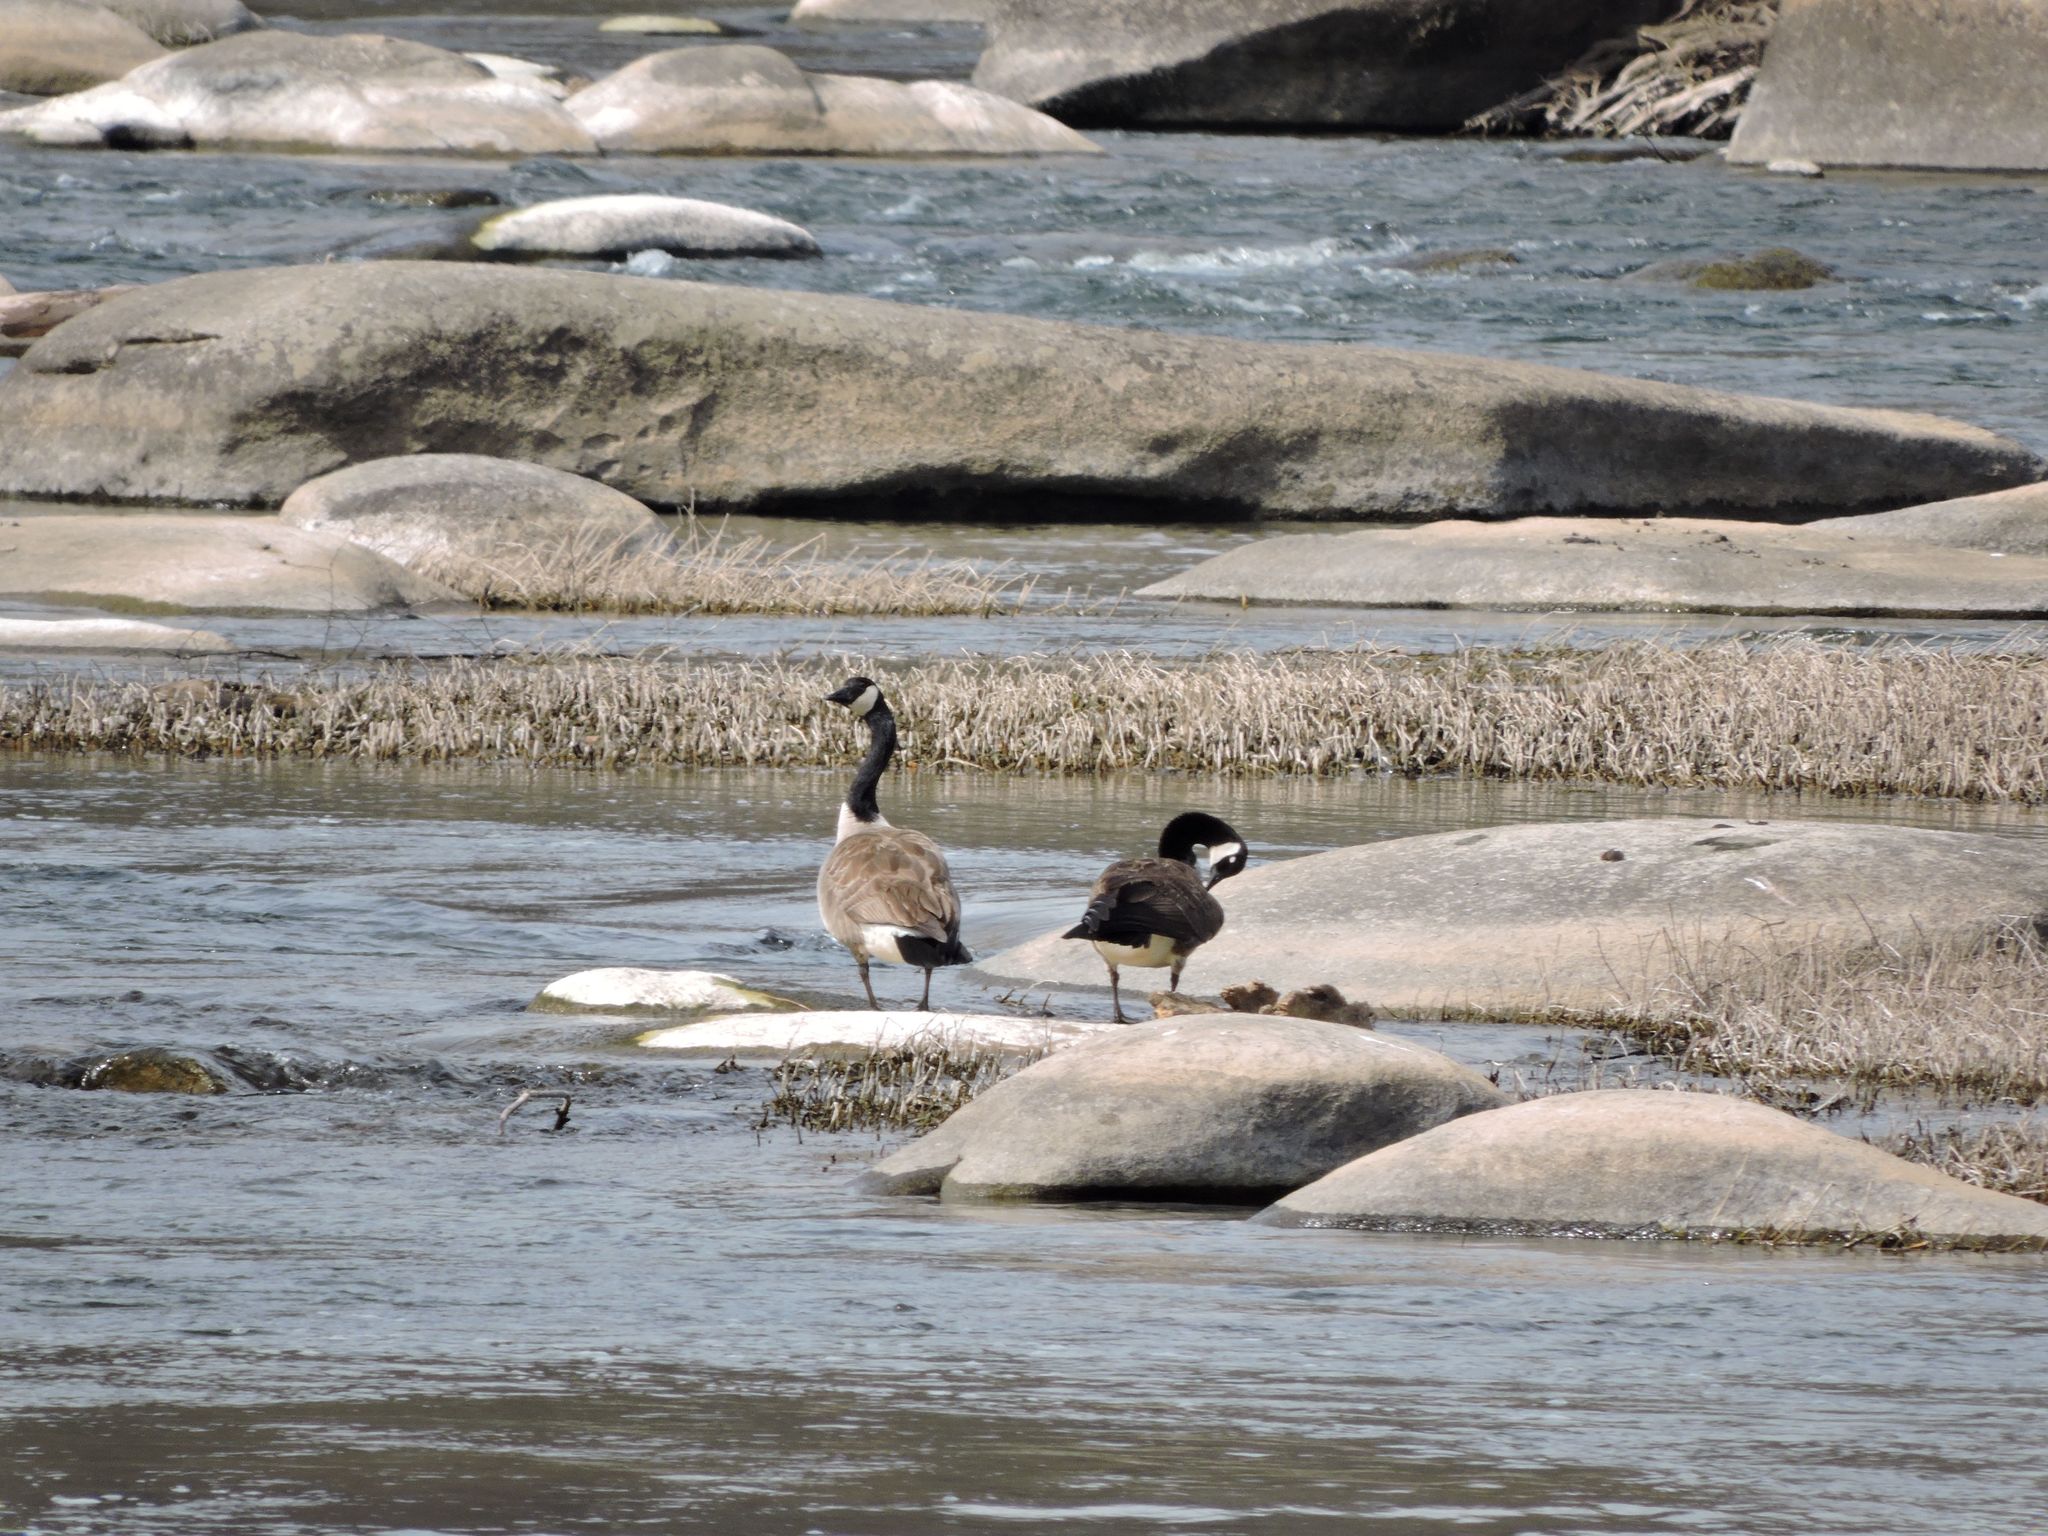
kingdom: Animalia
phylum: Chordata
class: Aves
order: Anseriformes
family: Anatidae
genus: Branta
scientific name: Branta canadensis
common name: Canada goose
